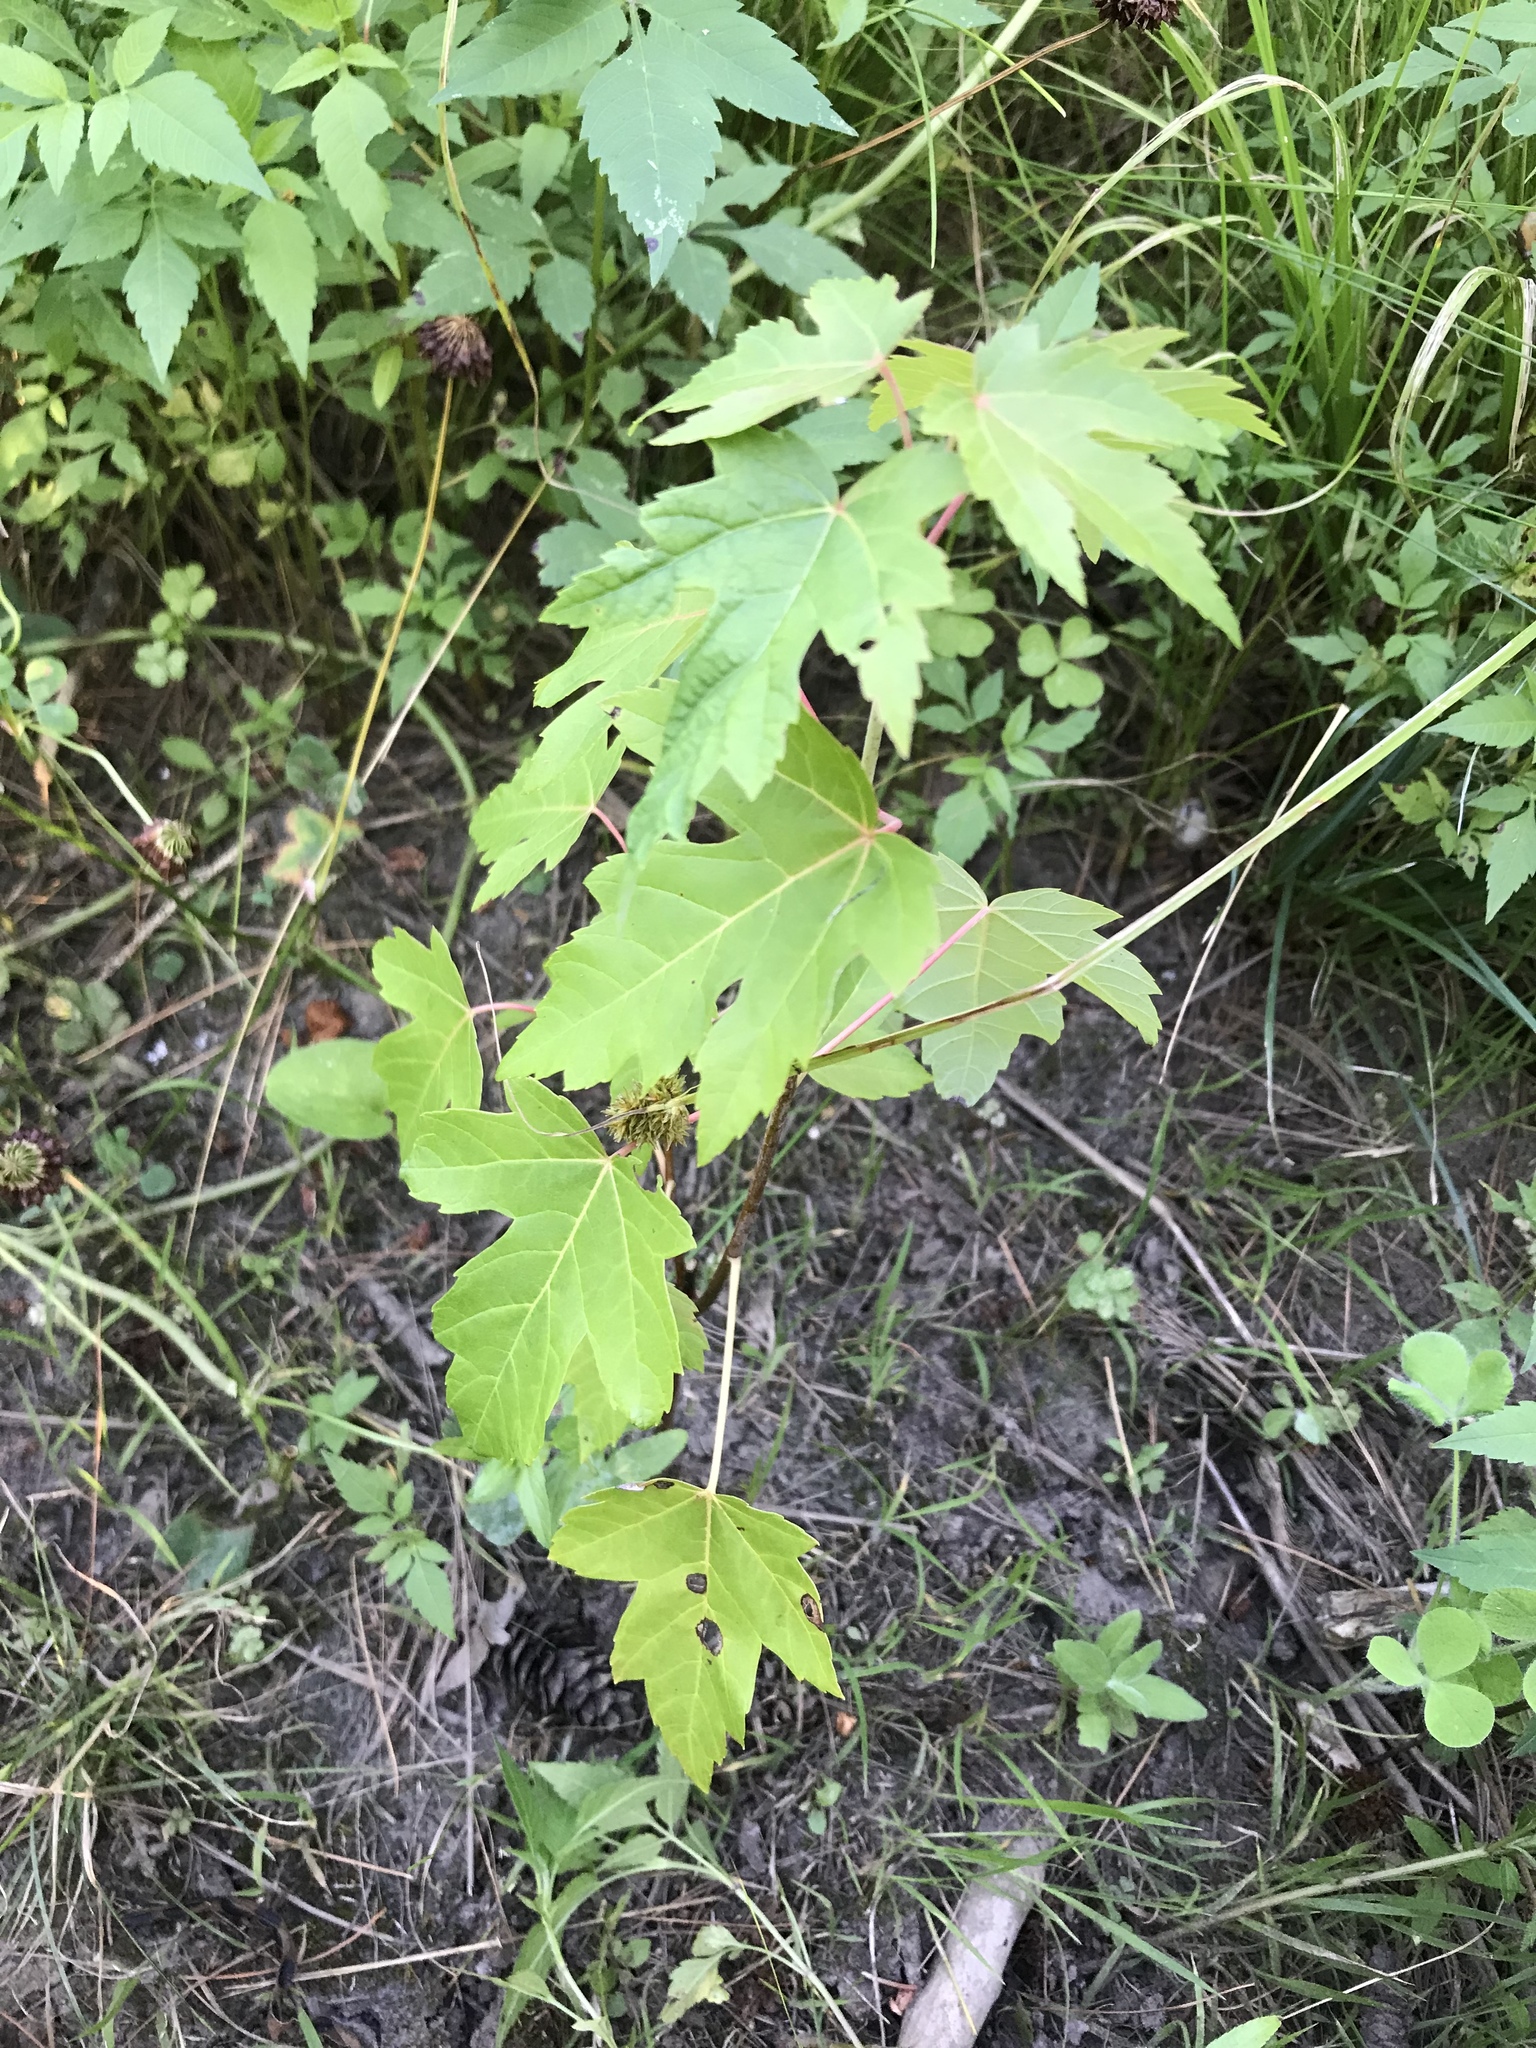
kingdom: Plantae
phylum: Tracheophyta
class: Magnoliopsida
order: Sapindales
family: Sapindaceae
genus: Acer
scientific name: Acer saccharinum
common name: Silver maple
